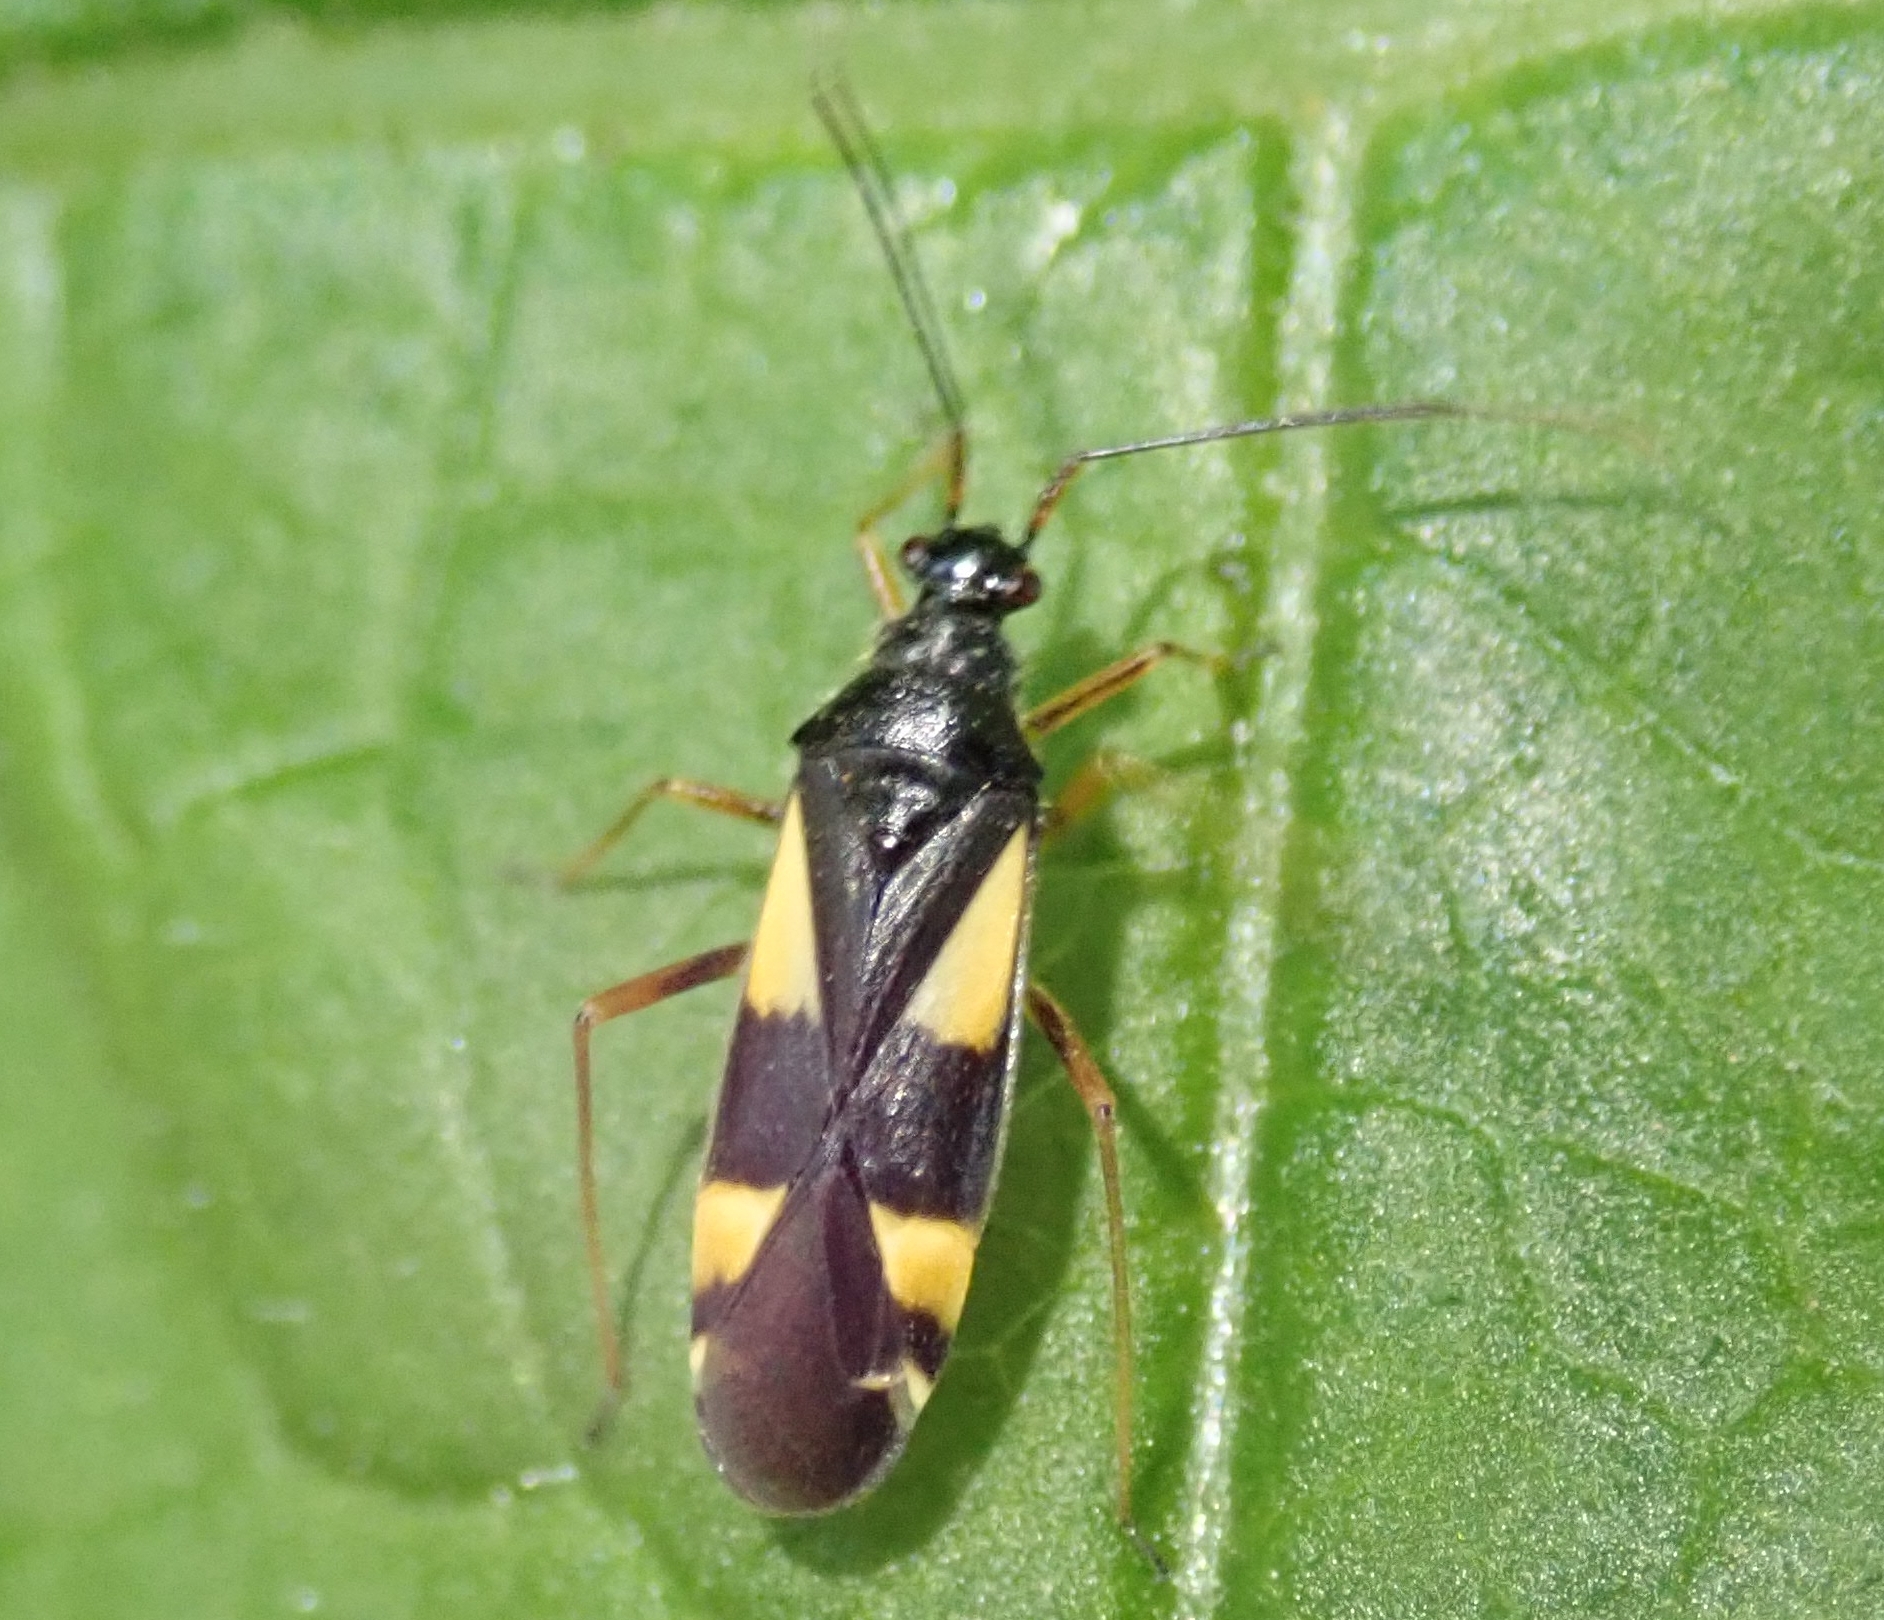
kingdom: Animalia
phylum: Arthropoda
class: Insecta
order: Hemiptera
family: Miridae
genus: Dryophilocoris
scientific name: Dryophilocoris flavoquadrimaculatus
